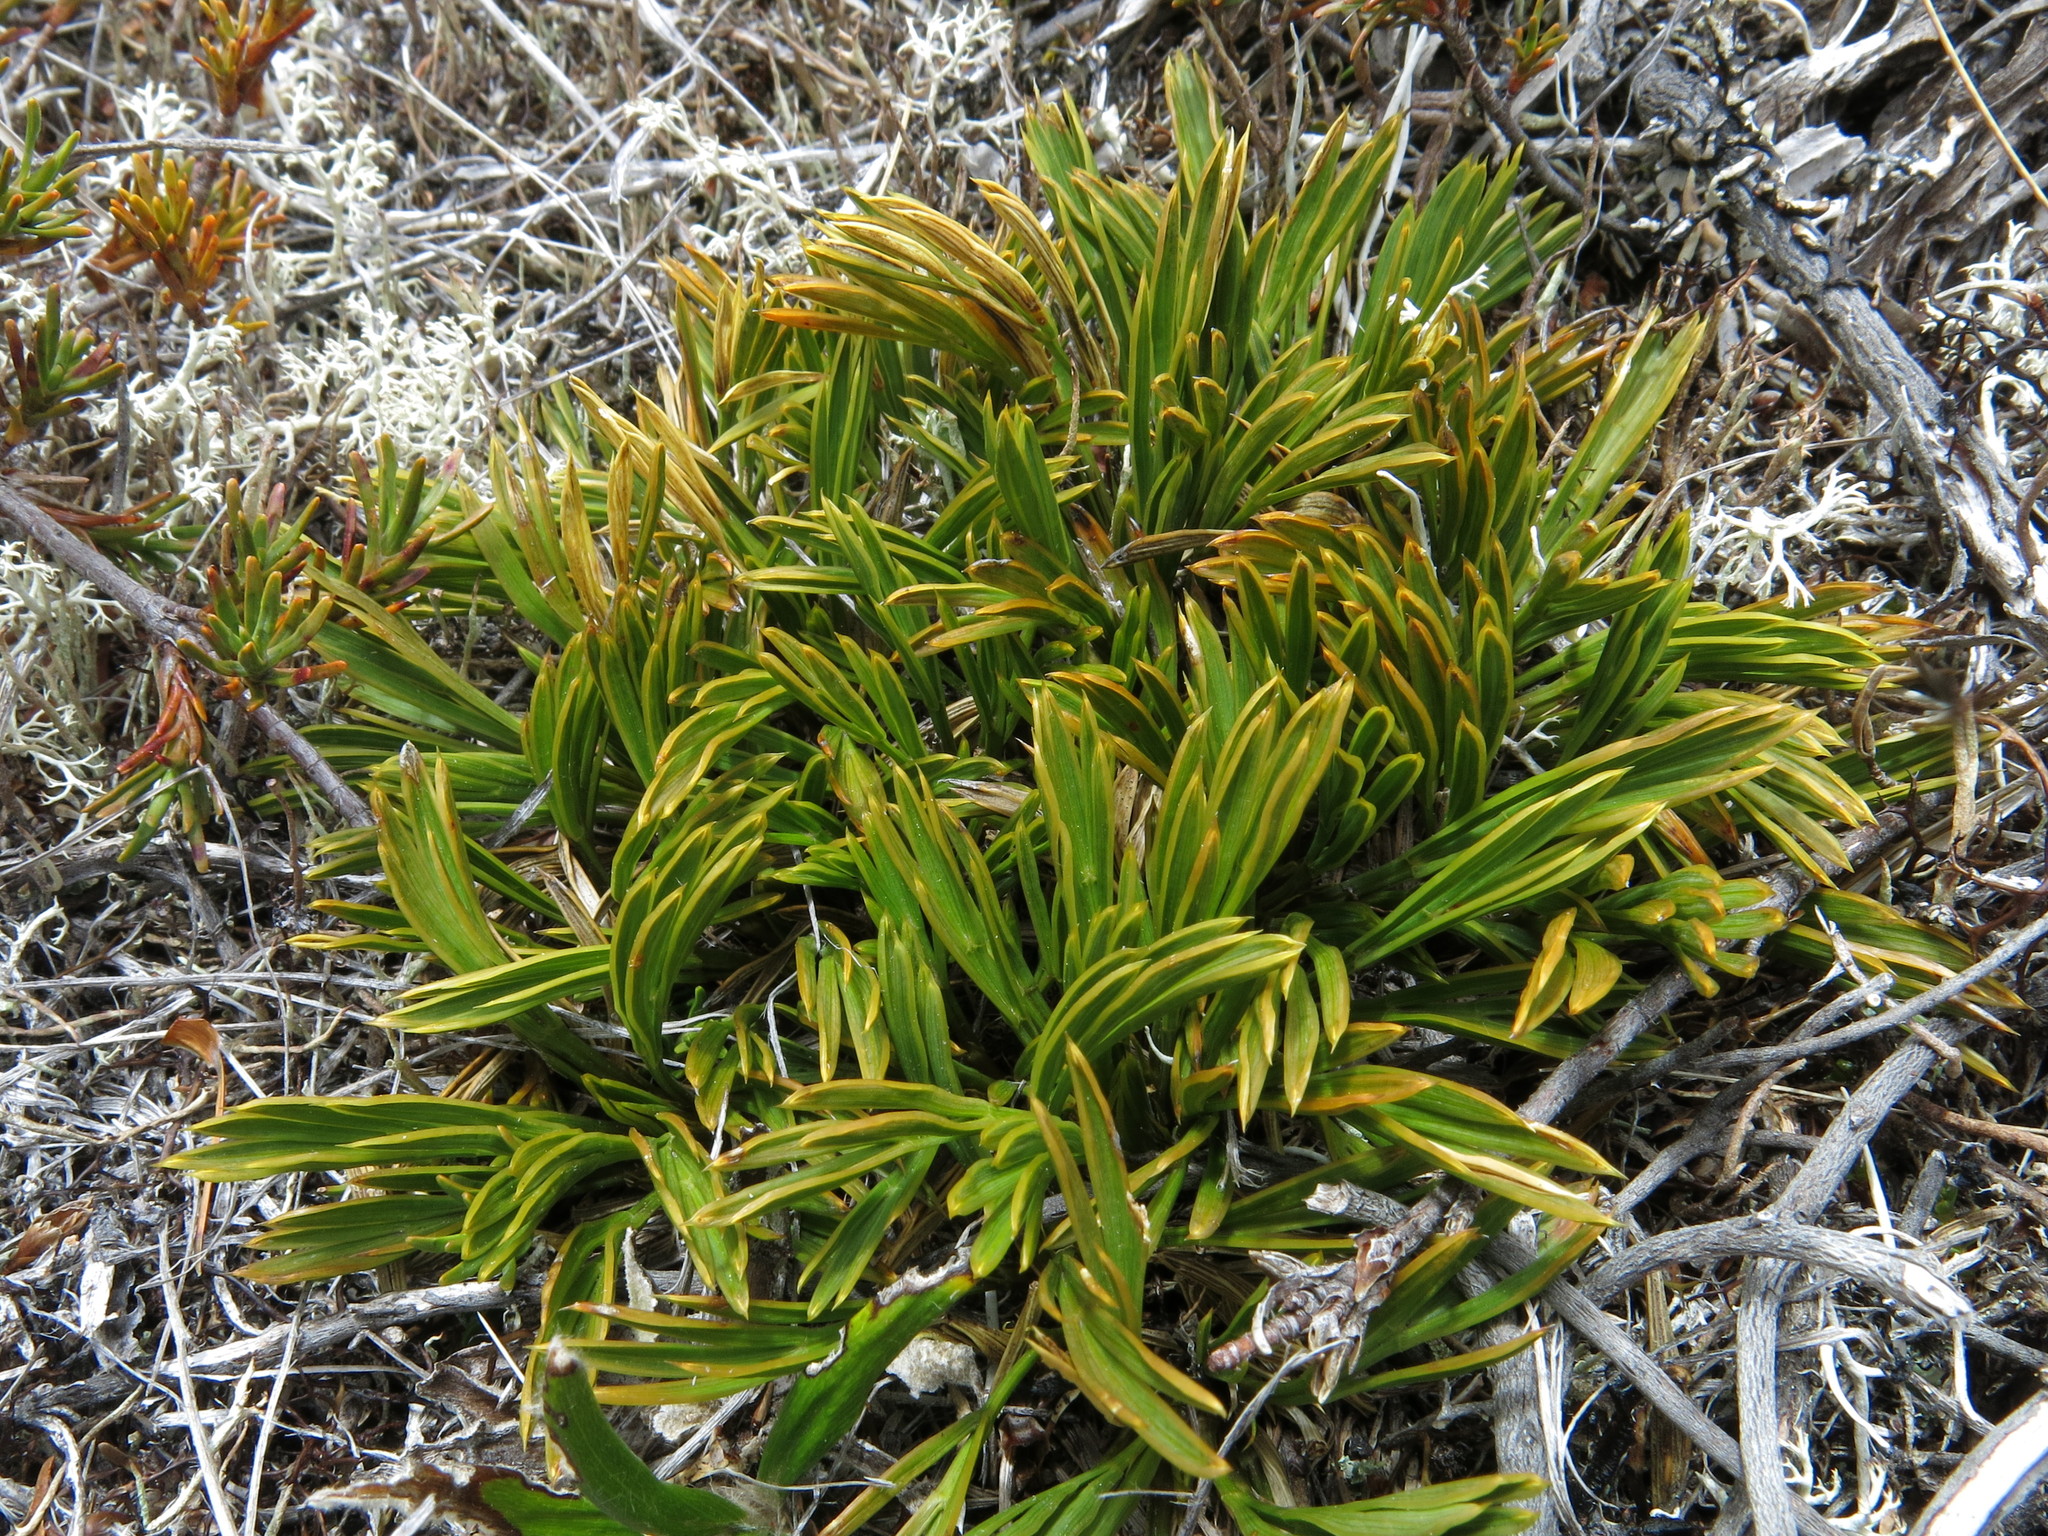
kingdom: Plantae
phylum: Tracheophyta
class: Magnoliopsida
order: Apiales
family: Apiaceae
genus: Aciphylla
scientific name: Aciphylla monroi
